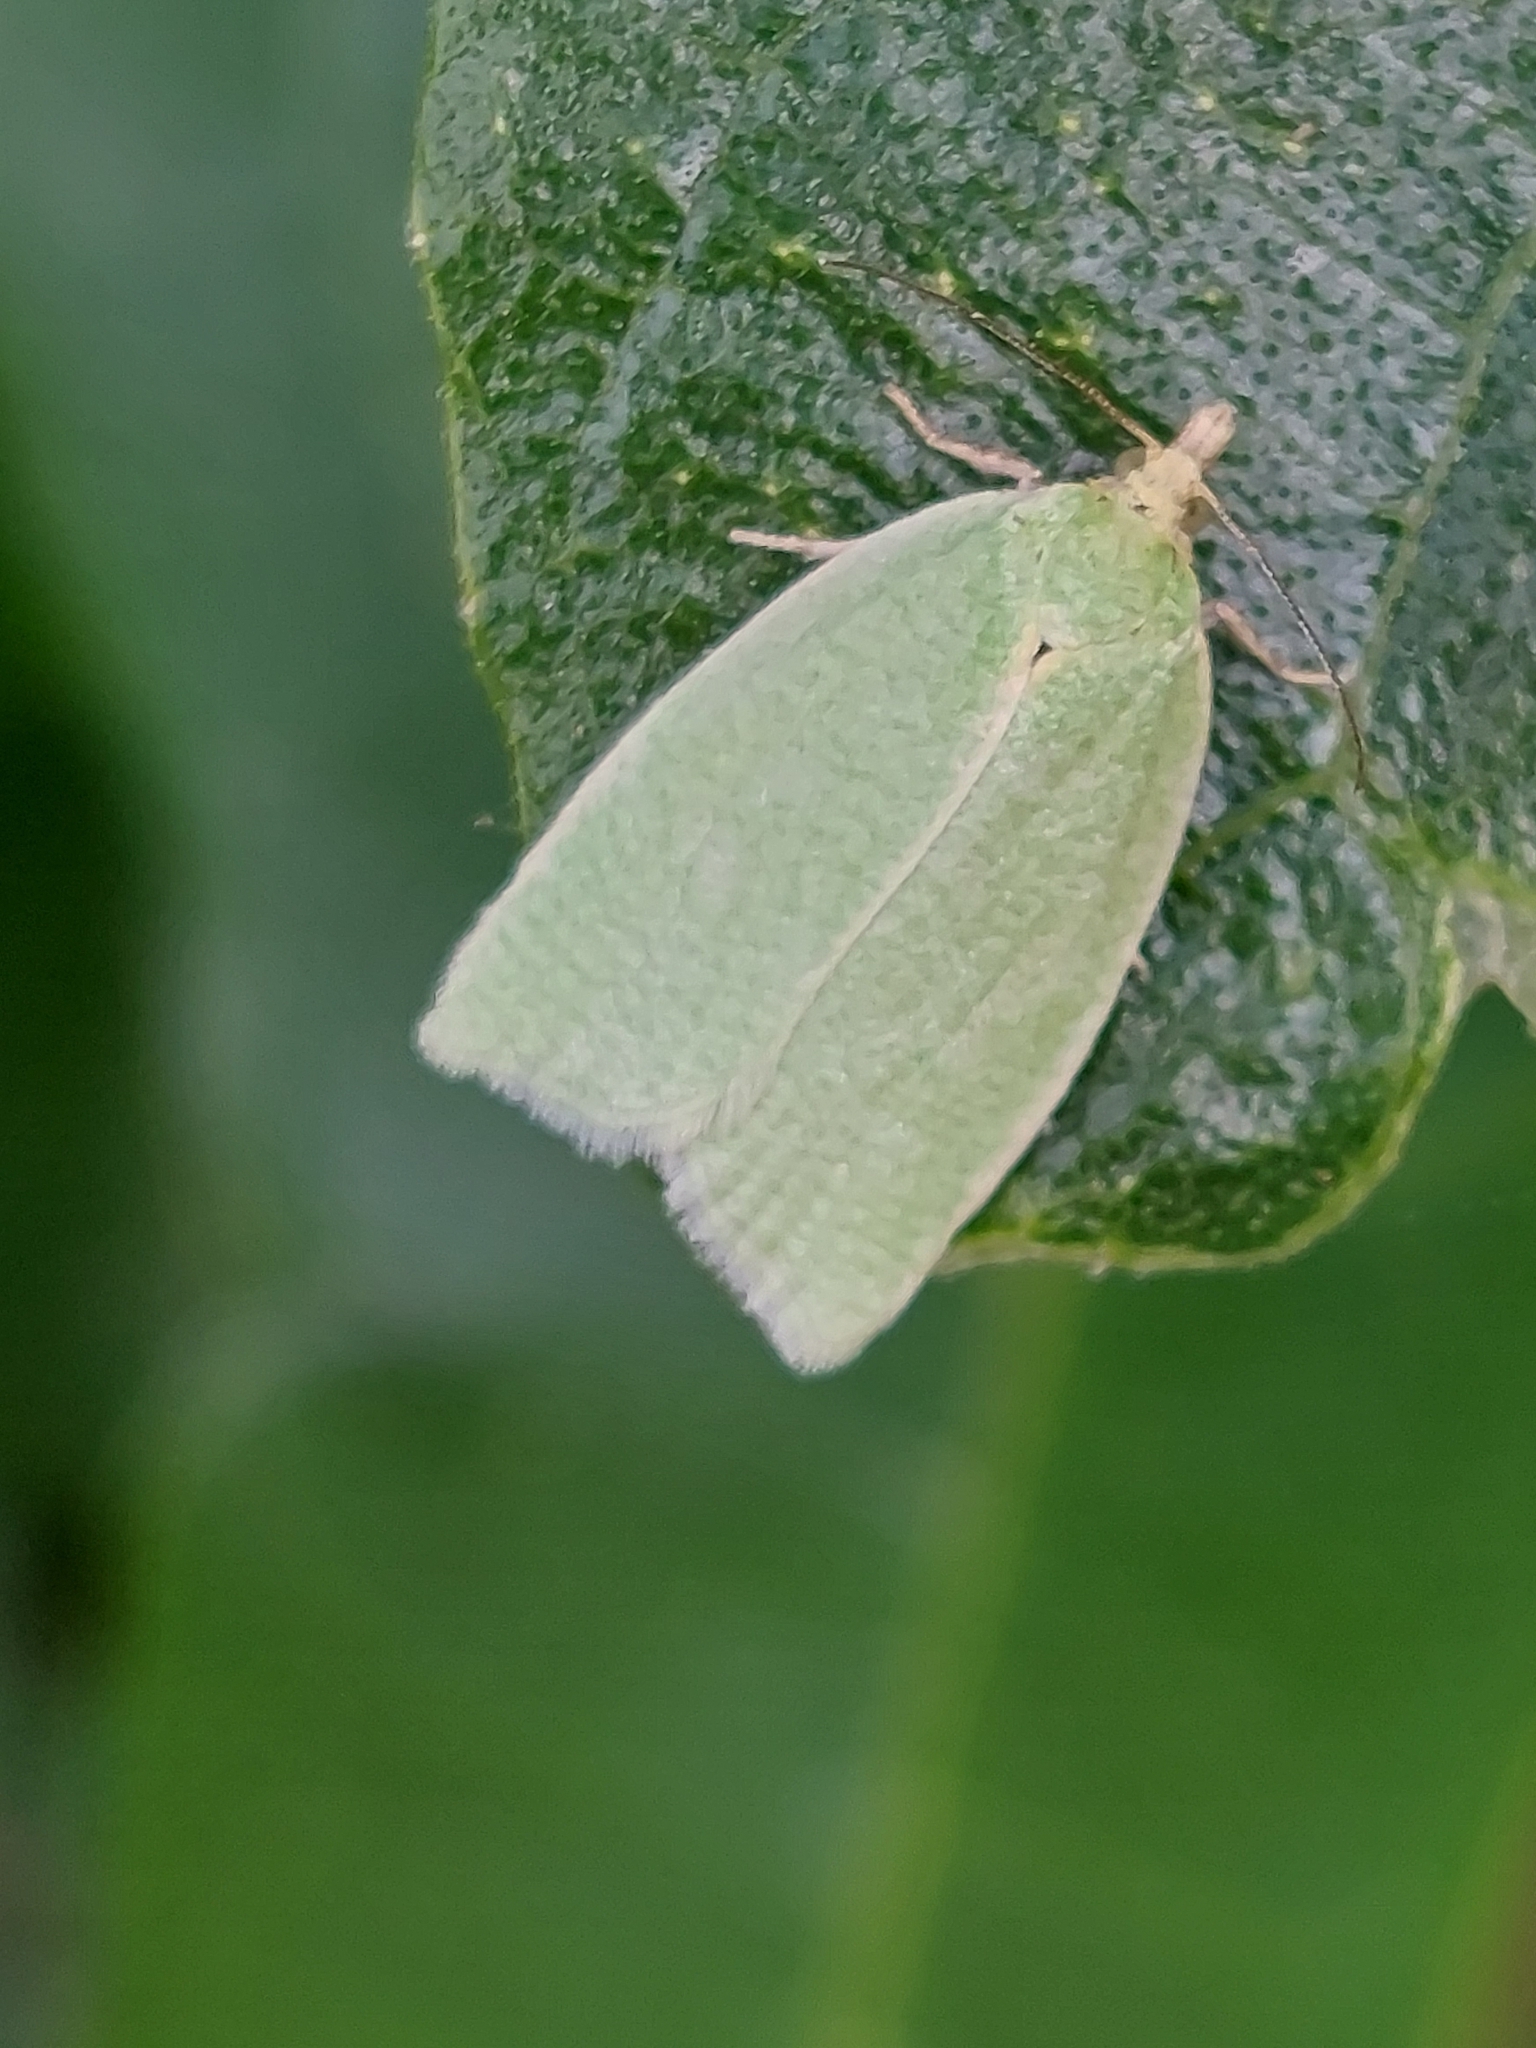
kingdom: Animalia
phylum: Arthropoda
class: Insecta
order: Lepidoptera
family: Tortricidae
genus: Tortrix
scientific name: Tortrix viridana
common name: Green oak tortrix
